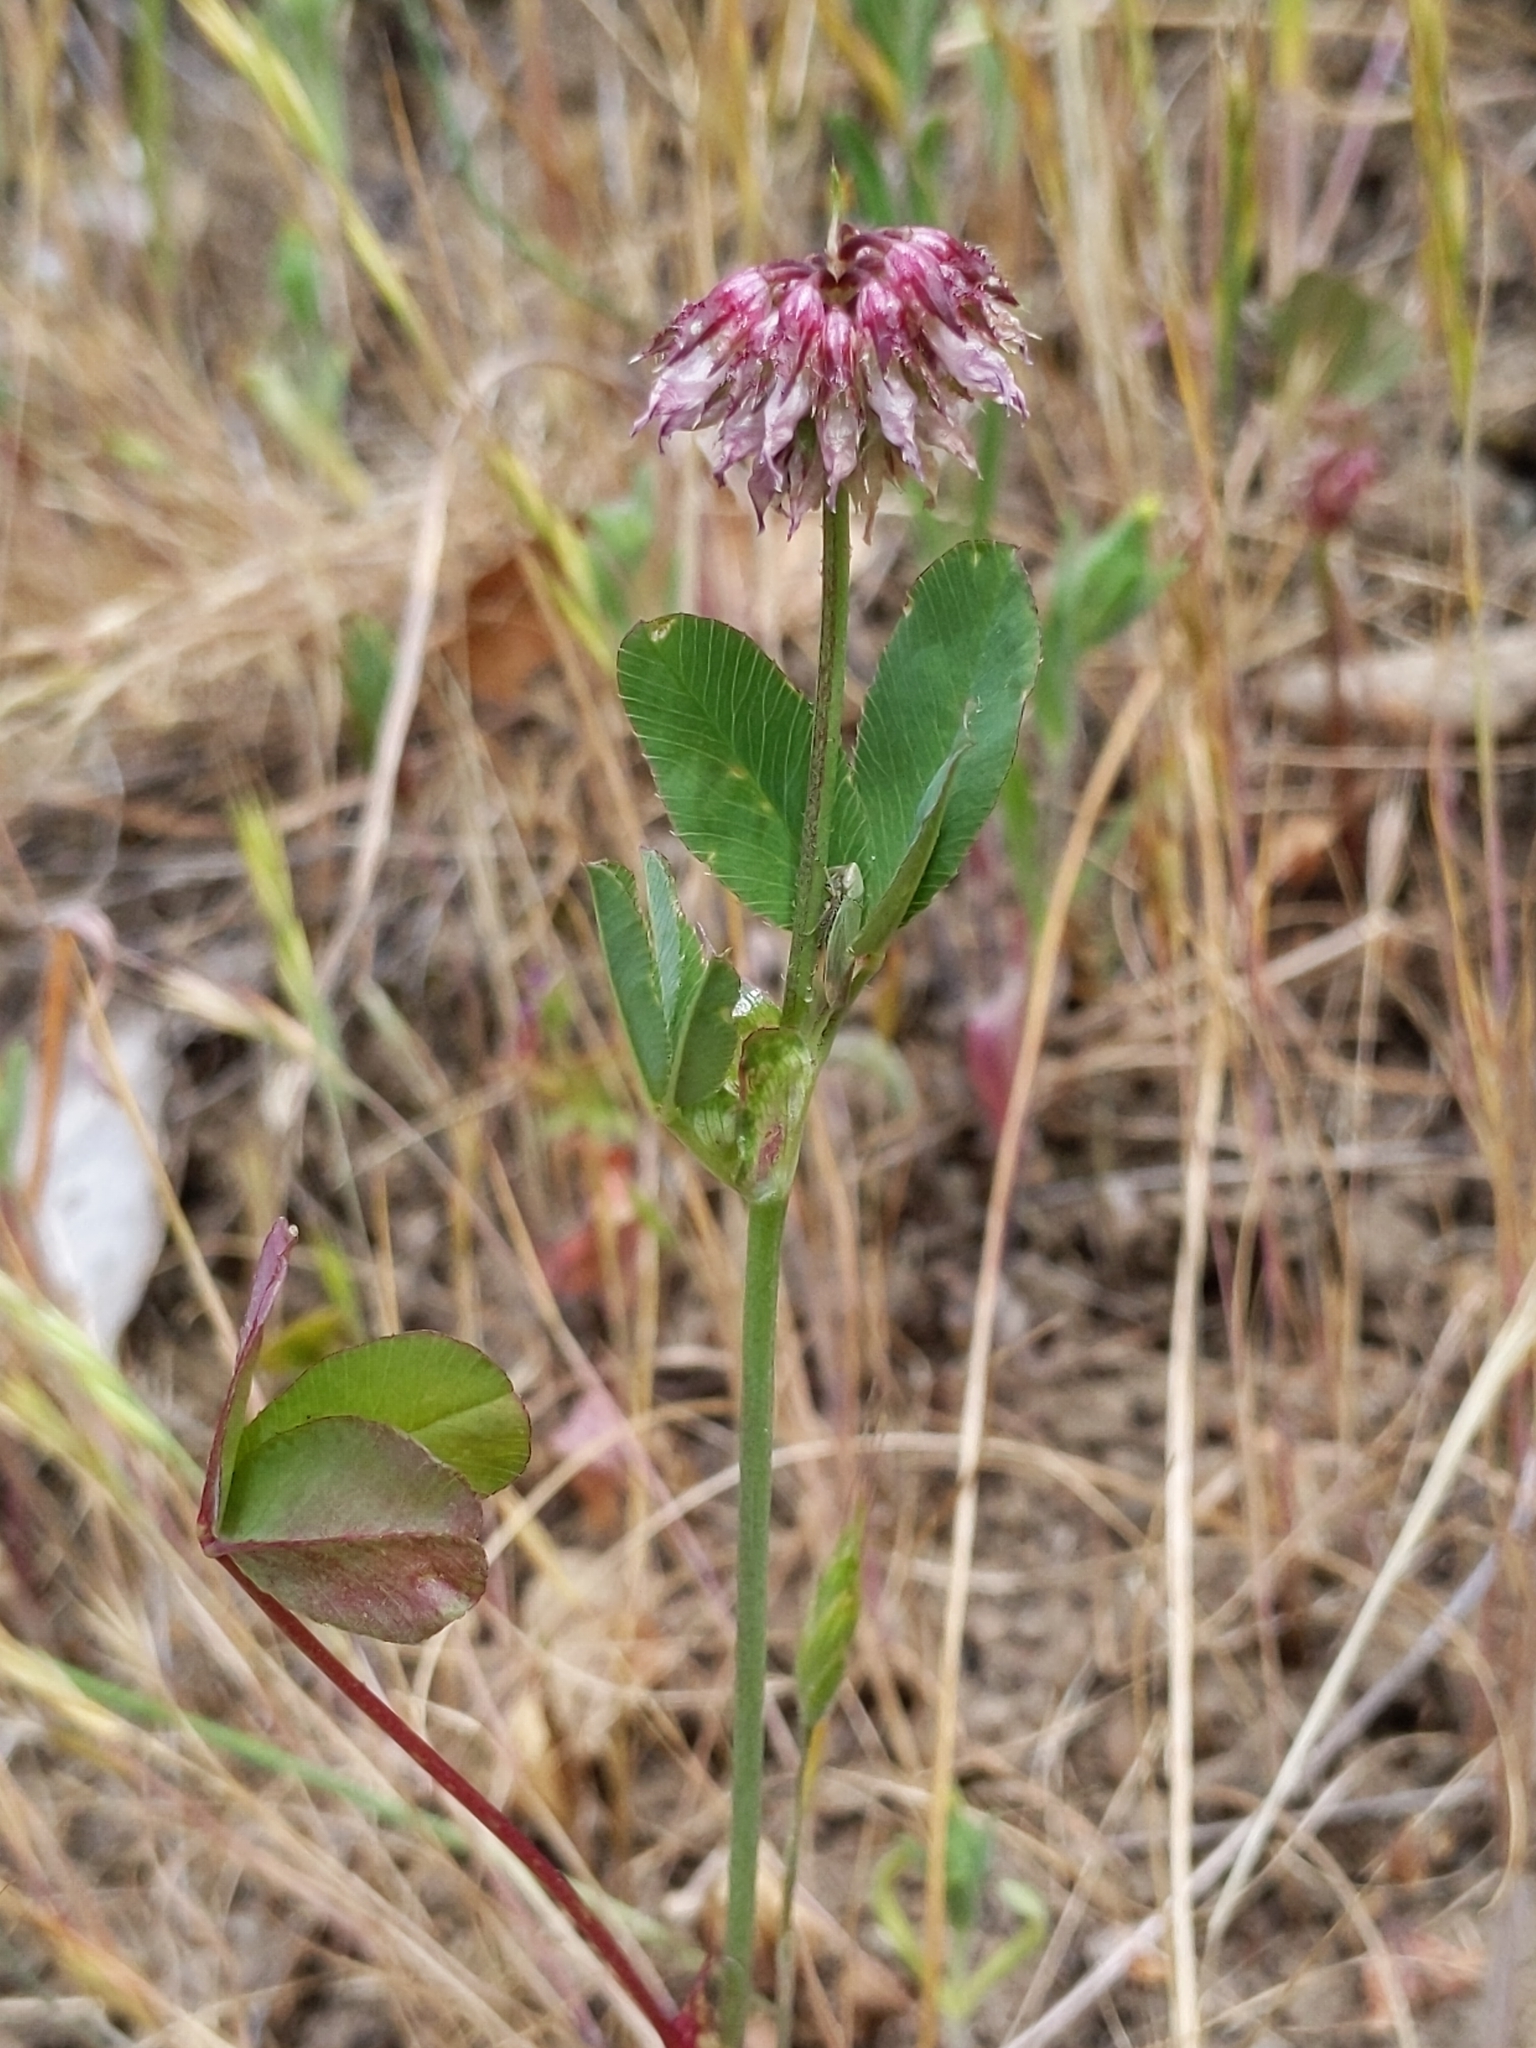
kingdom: Plantae
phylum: Tracheophyta
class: Magnoliopsida
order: Fabales
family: Fabaceae
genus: Trifolium
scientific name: Trifolium ciliolatum
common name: Foothill clover
